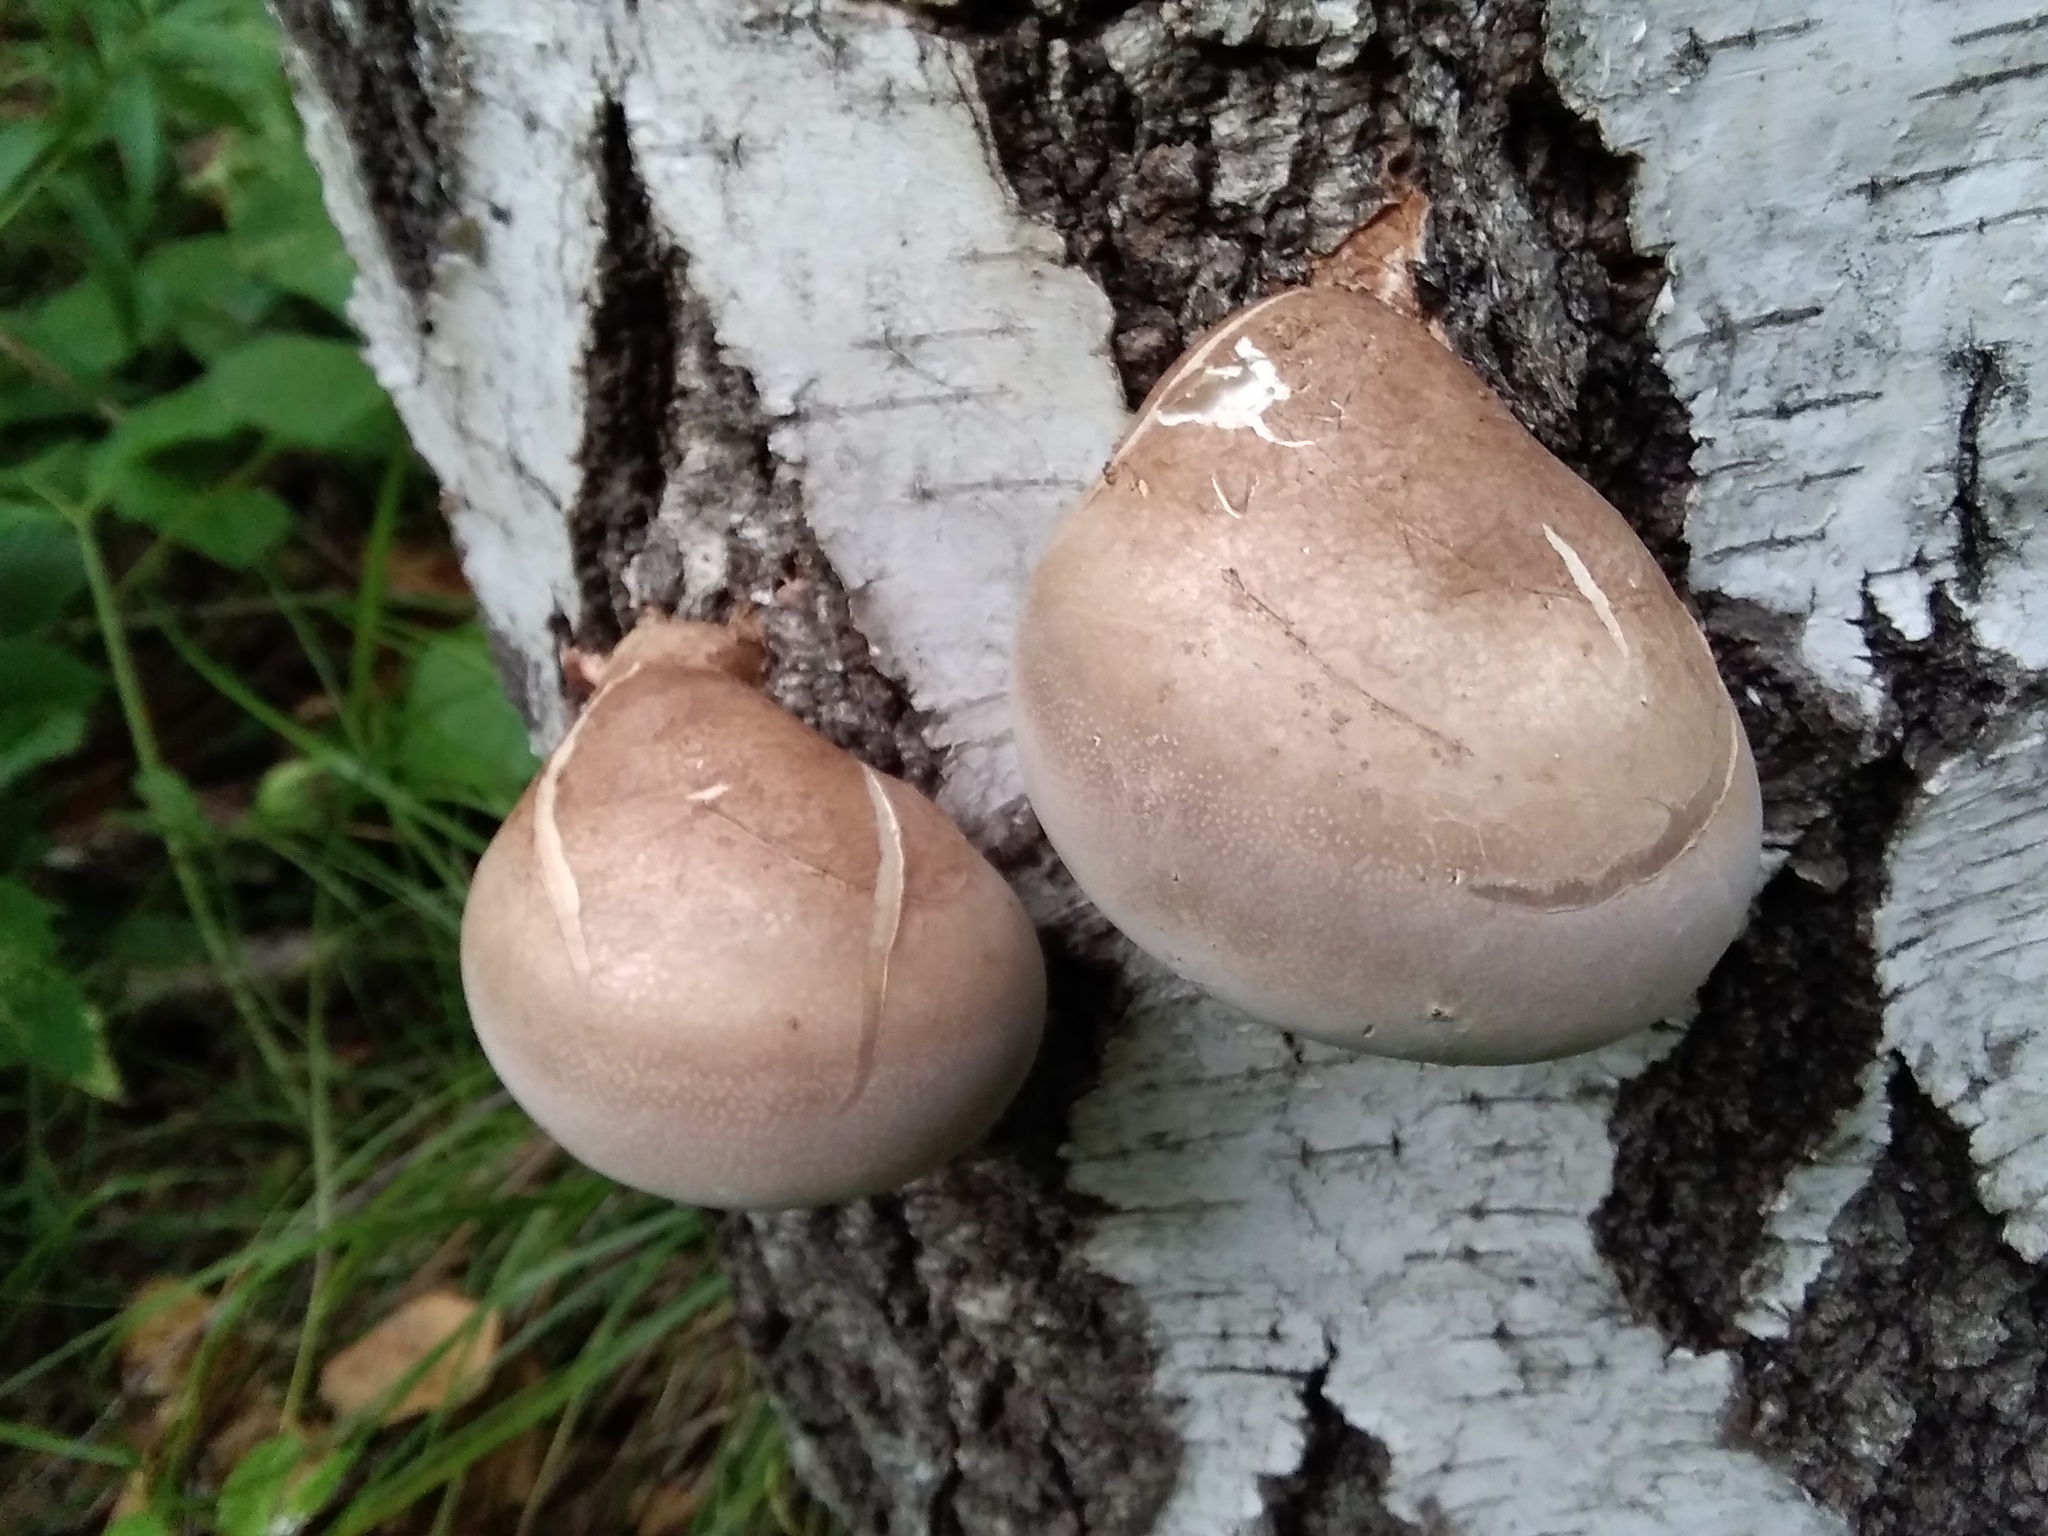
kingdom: Fungi
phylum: Basidiomycota
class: Agaricomycetes
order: Polyporales
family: Fomitopsidaceae
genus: Fomitopsis
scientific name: Fomitopsis betulina
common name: Birch polypore
